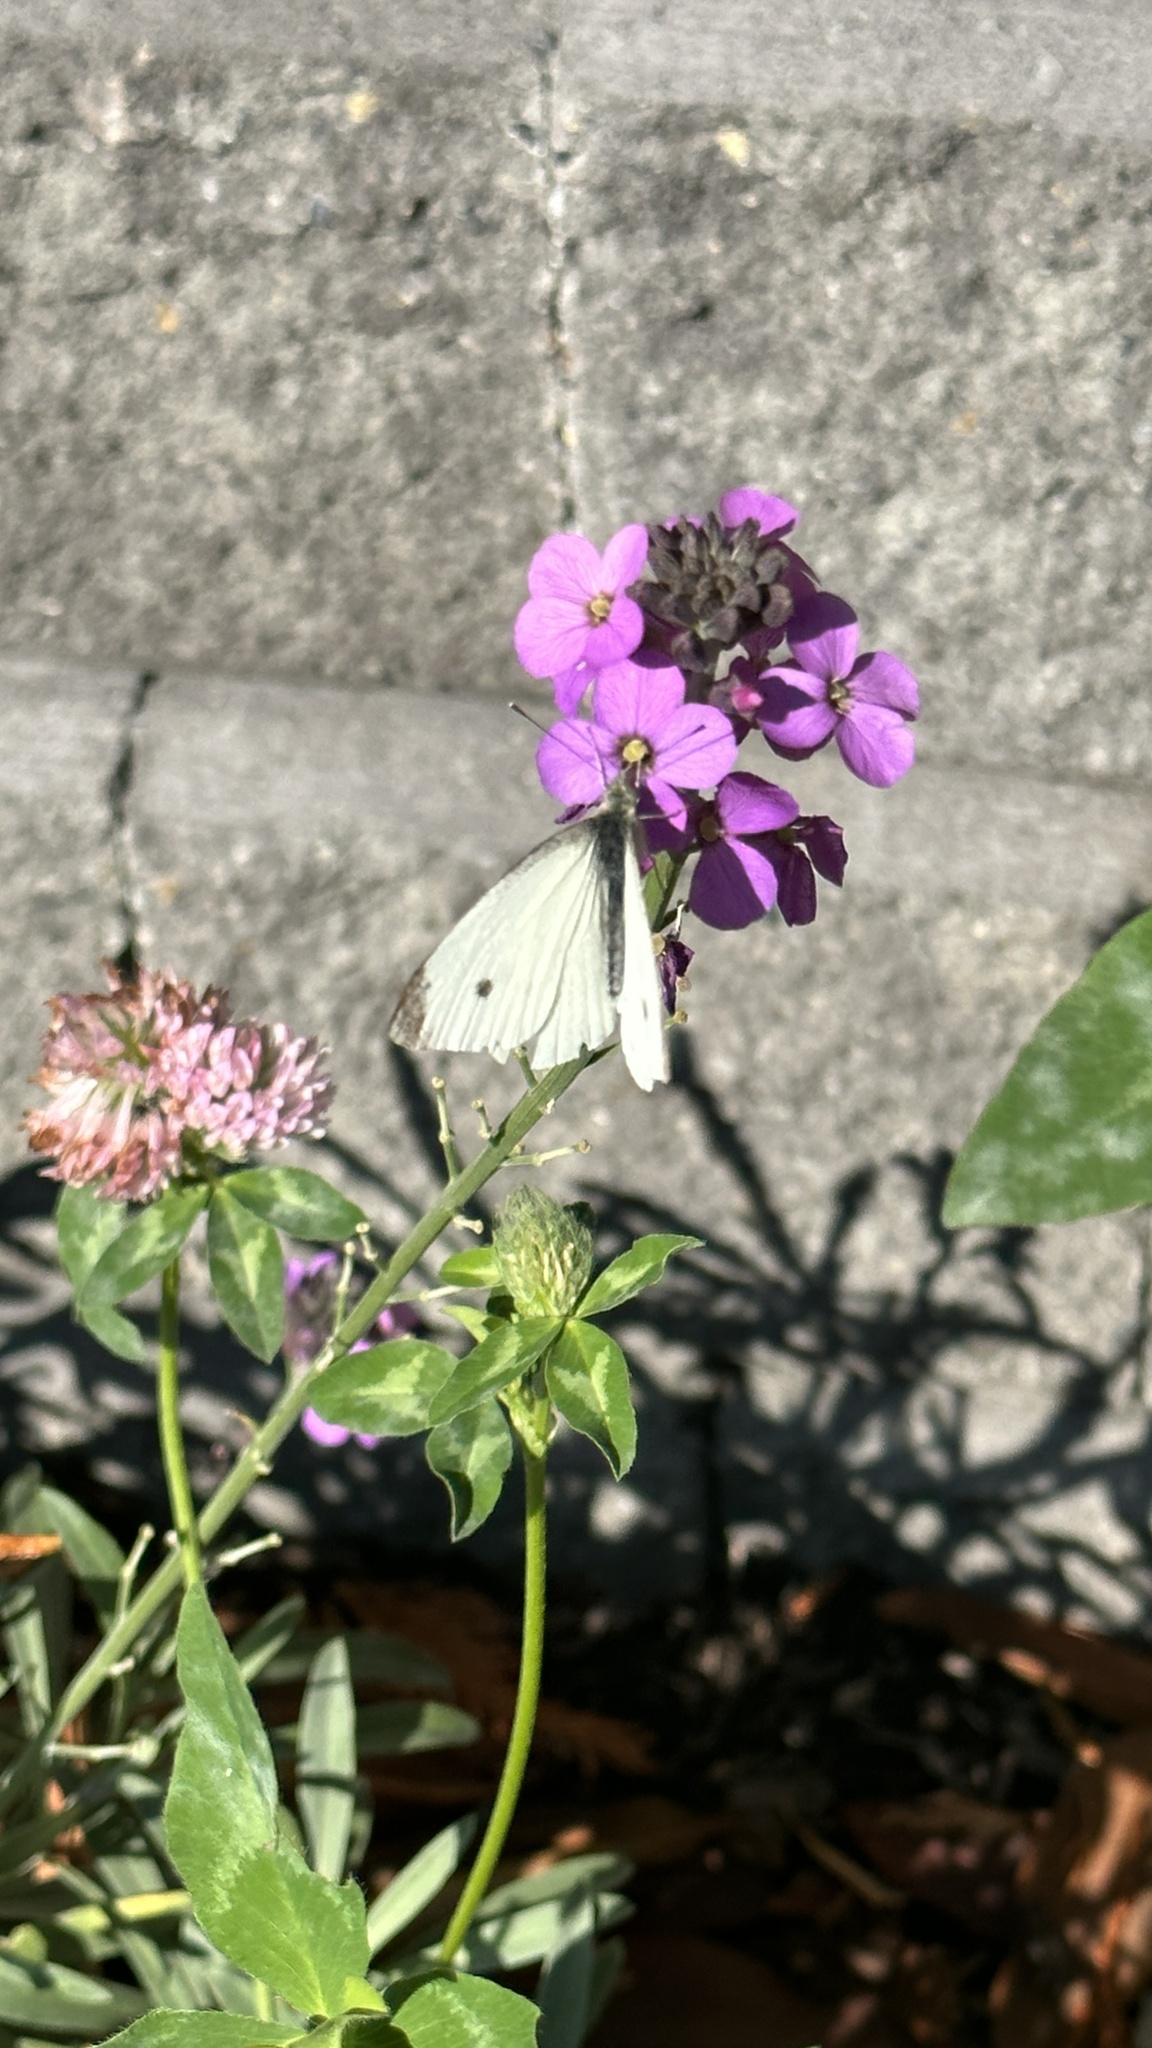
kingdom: Animalia
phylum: Arthropoda
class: Insecta
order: Lepidoptera
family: Pieridae
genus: Pieris
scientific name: Pieris rapae
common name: Small white
